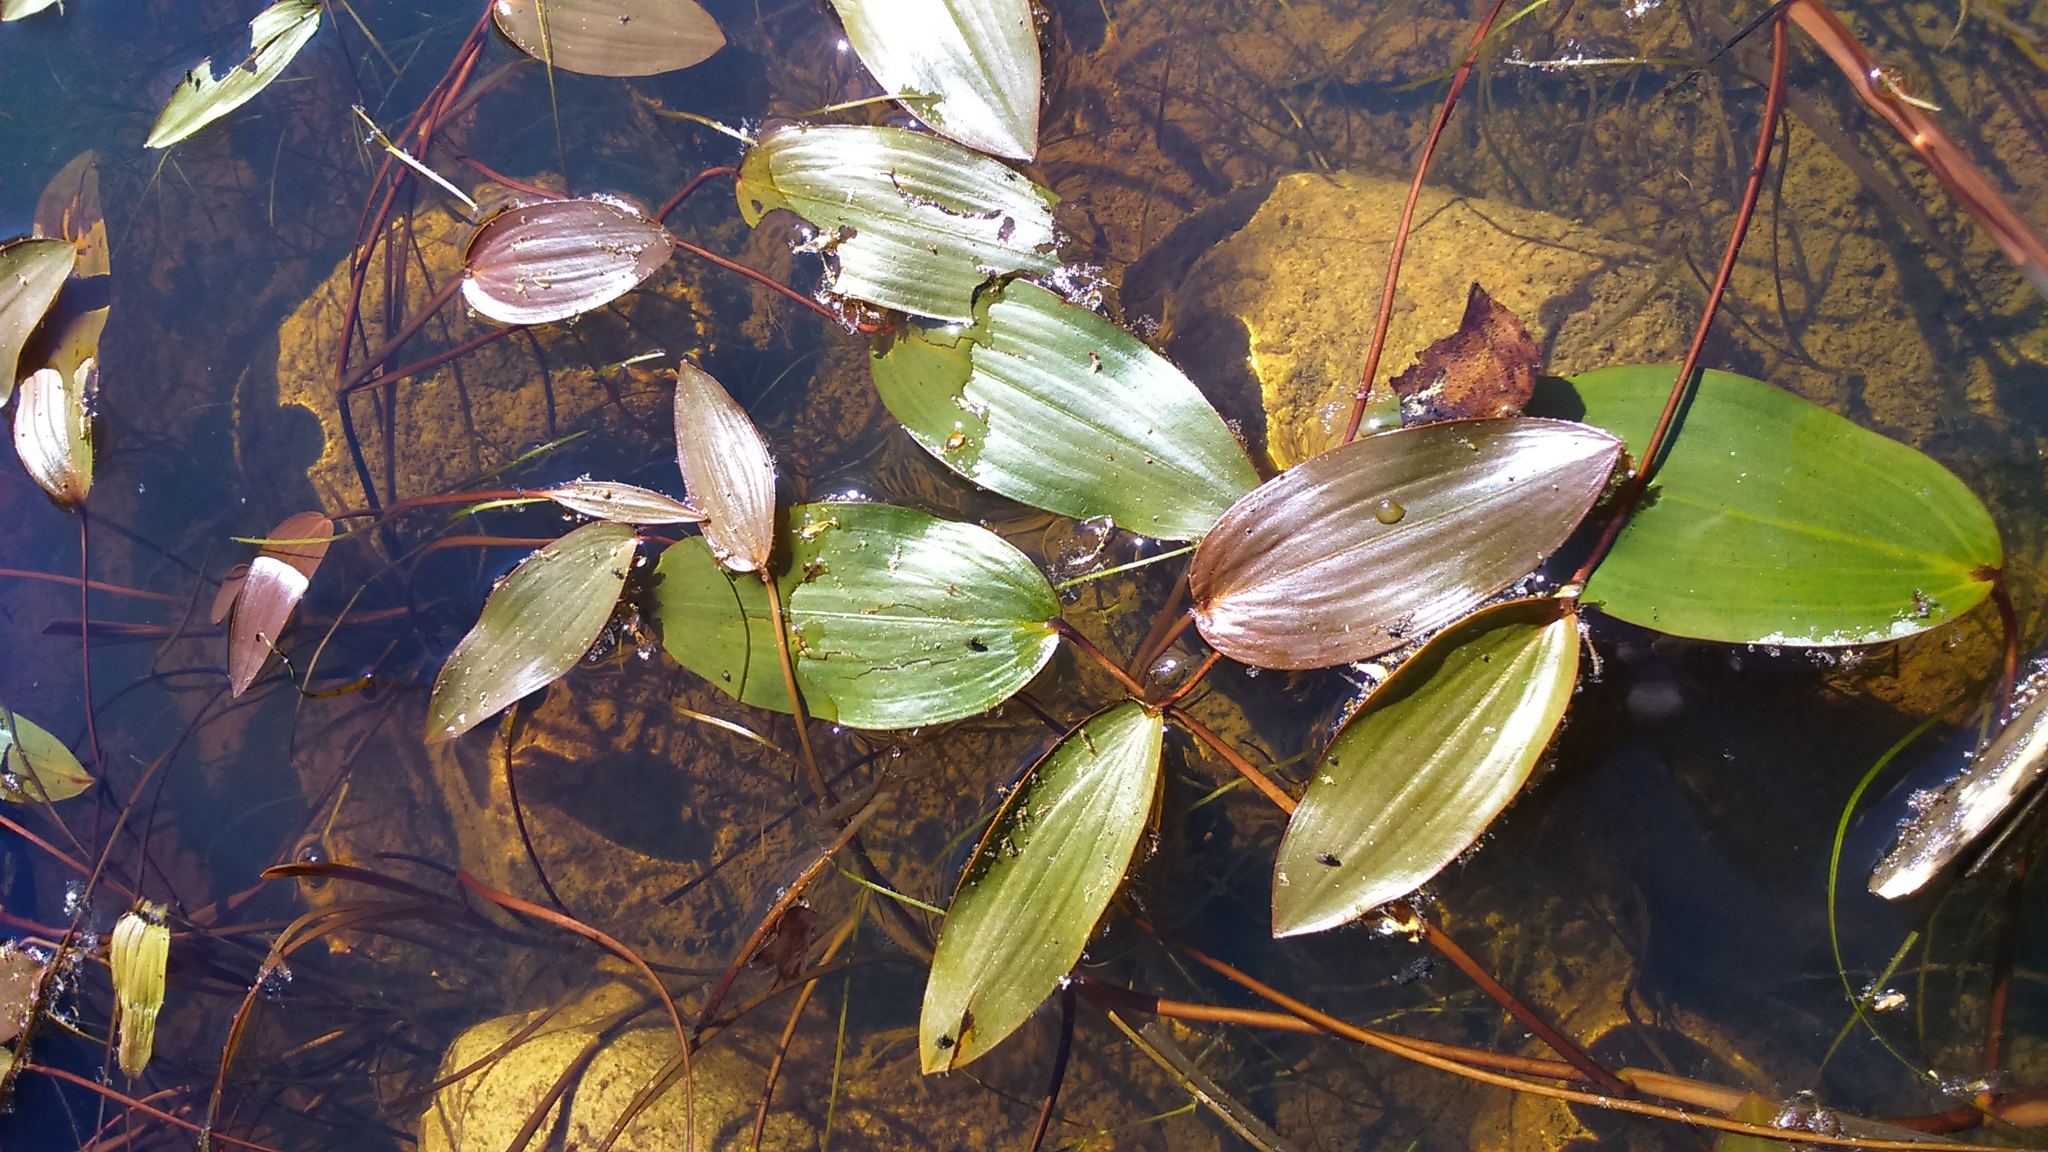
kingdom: Plantae
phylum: Tracheophyta
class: Liliopsida
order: Alismatales
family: Potamogetonaceae
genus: Potamogeton
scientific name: Potamogeton natans
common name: Broad-leaved pondweed
